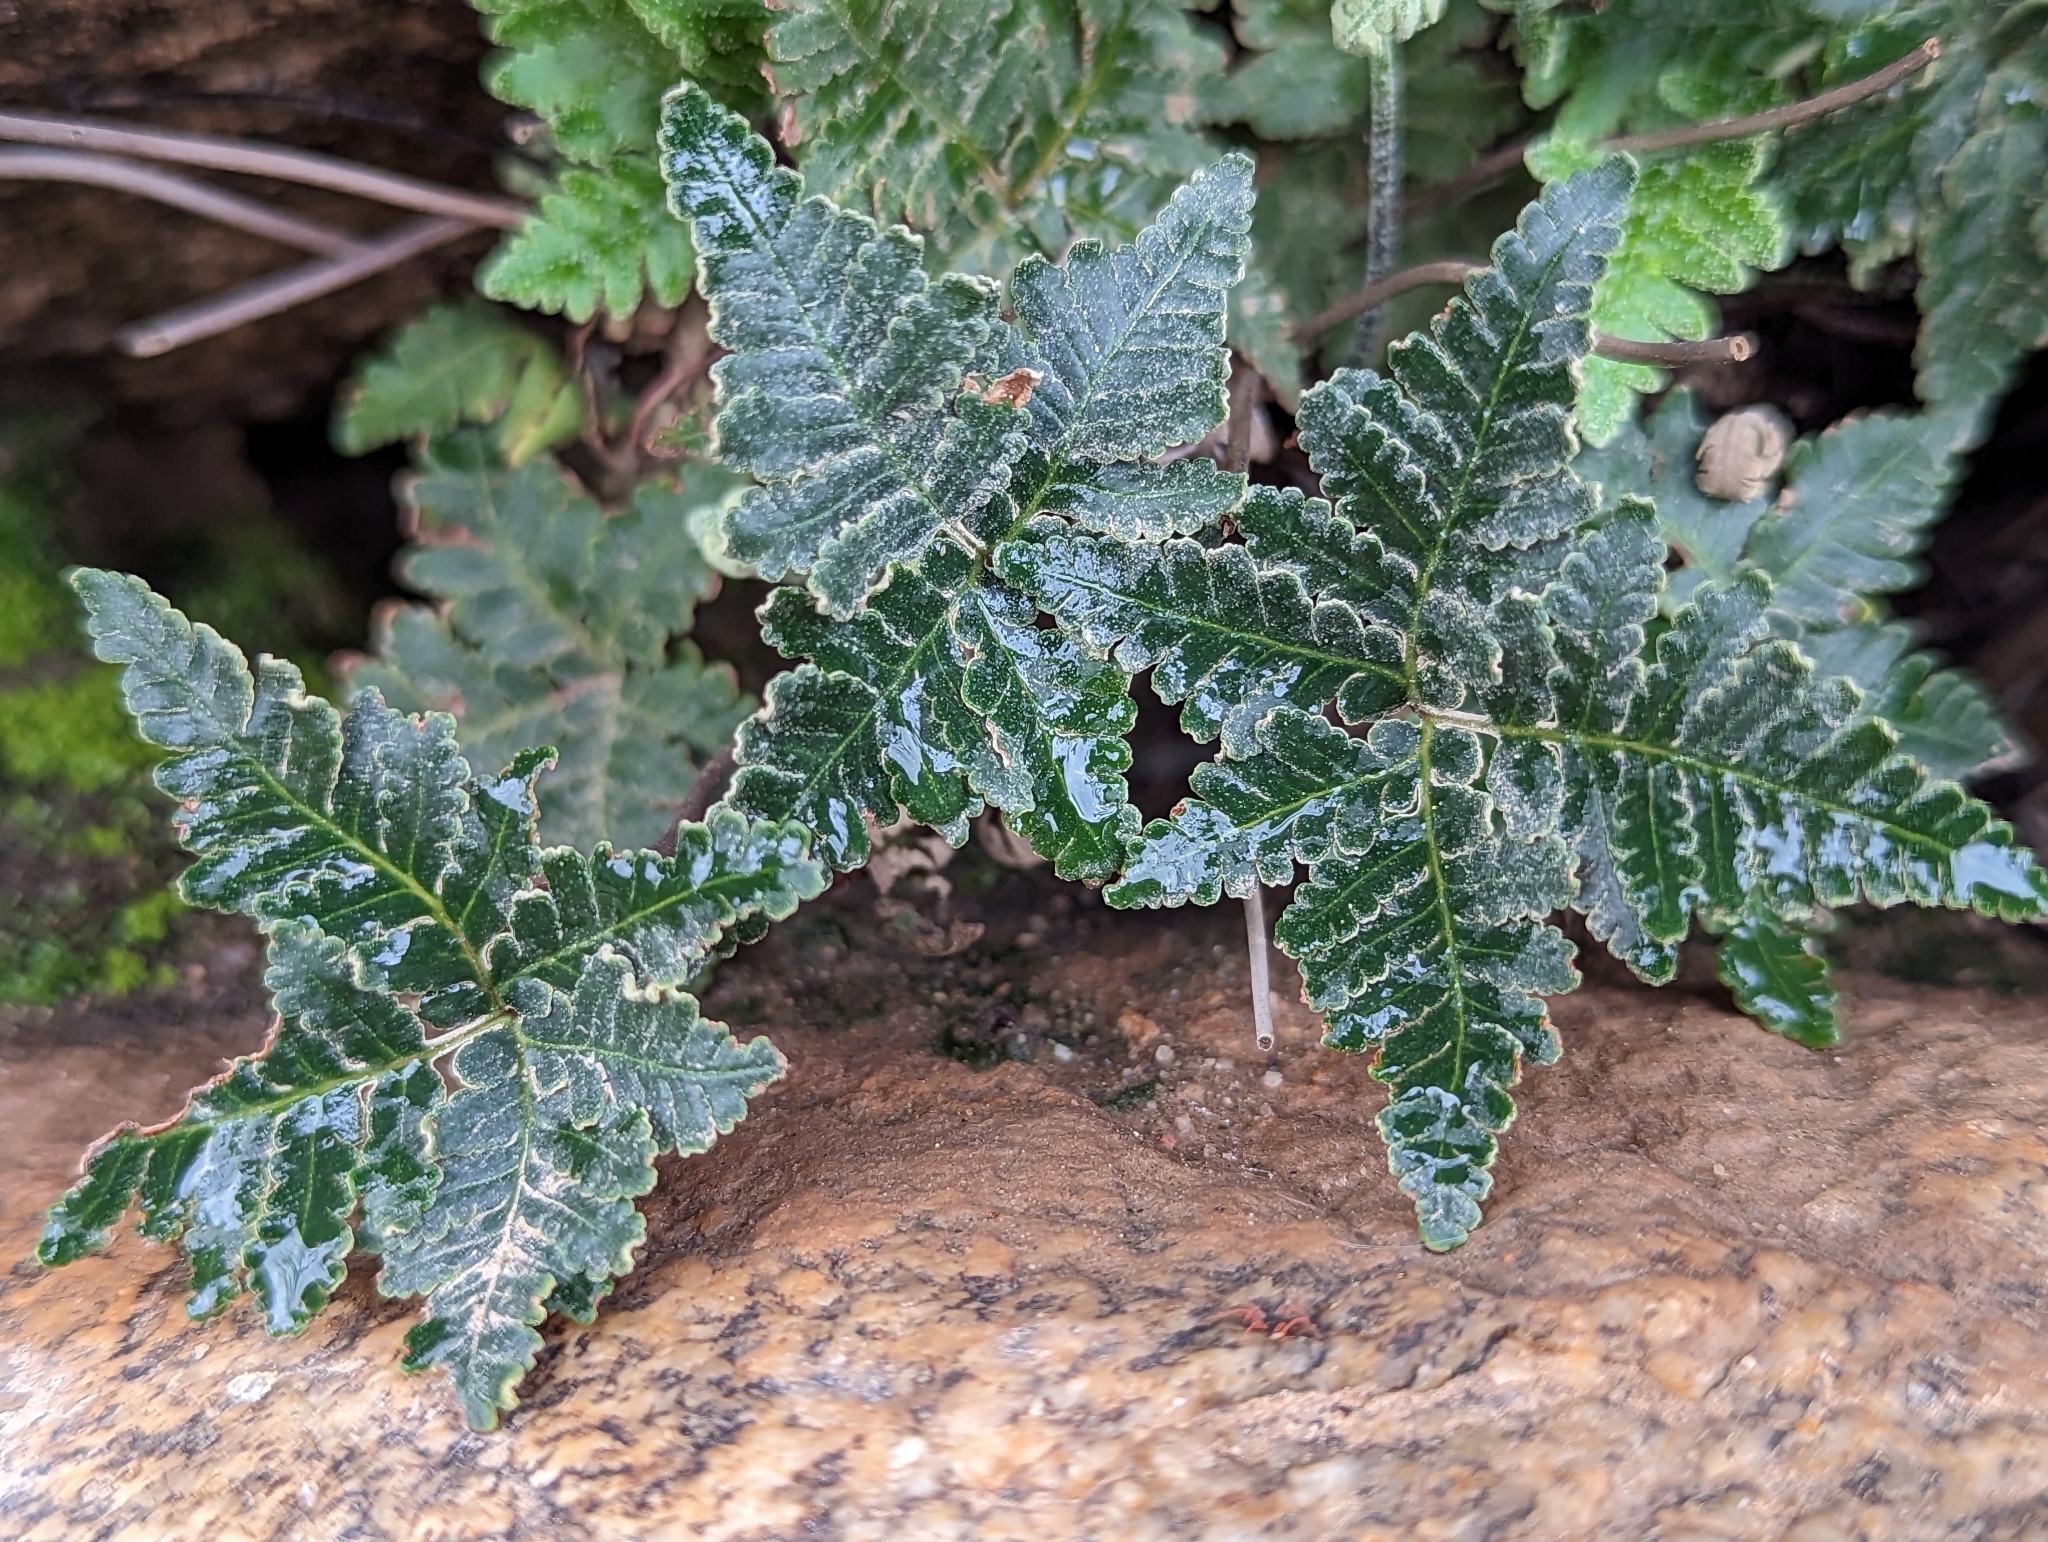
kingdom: Plantae
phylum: Tracheophyta
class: Polypodiopsida
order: Polypodiales
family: Pteridaceae
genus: Notholaena
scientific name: Notholaena standleyi
